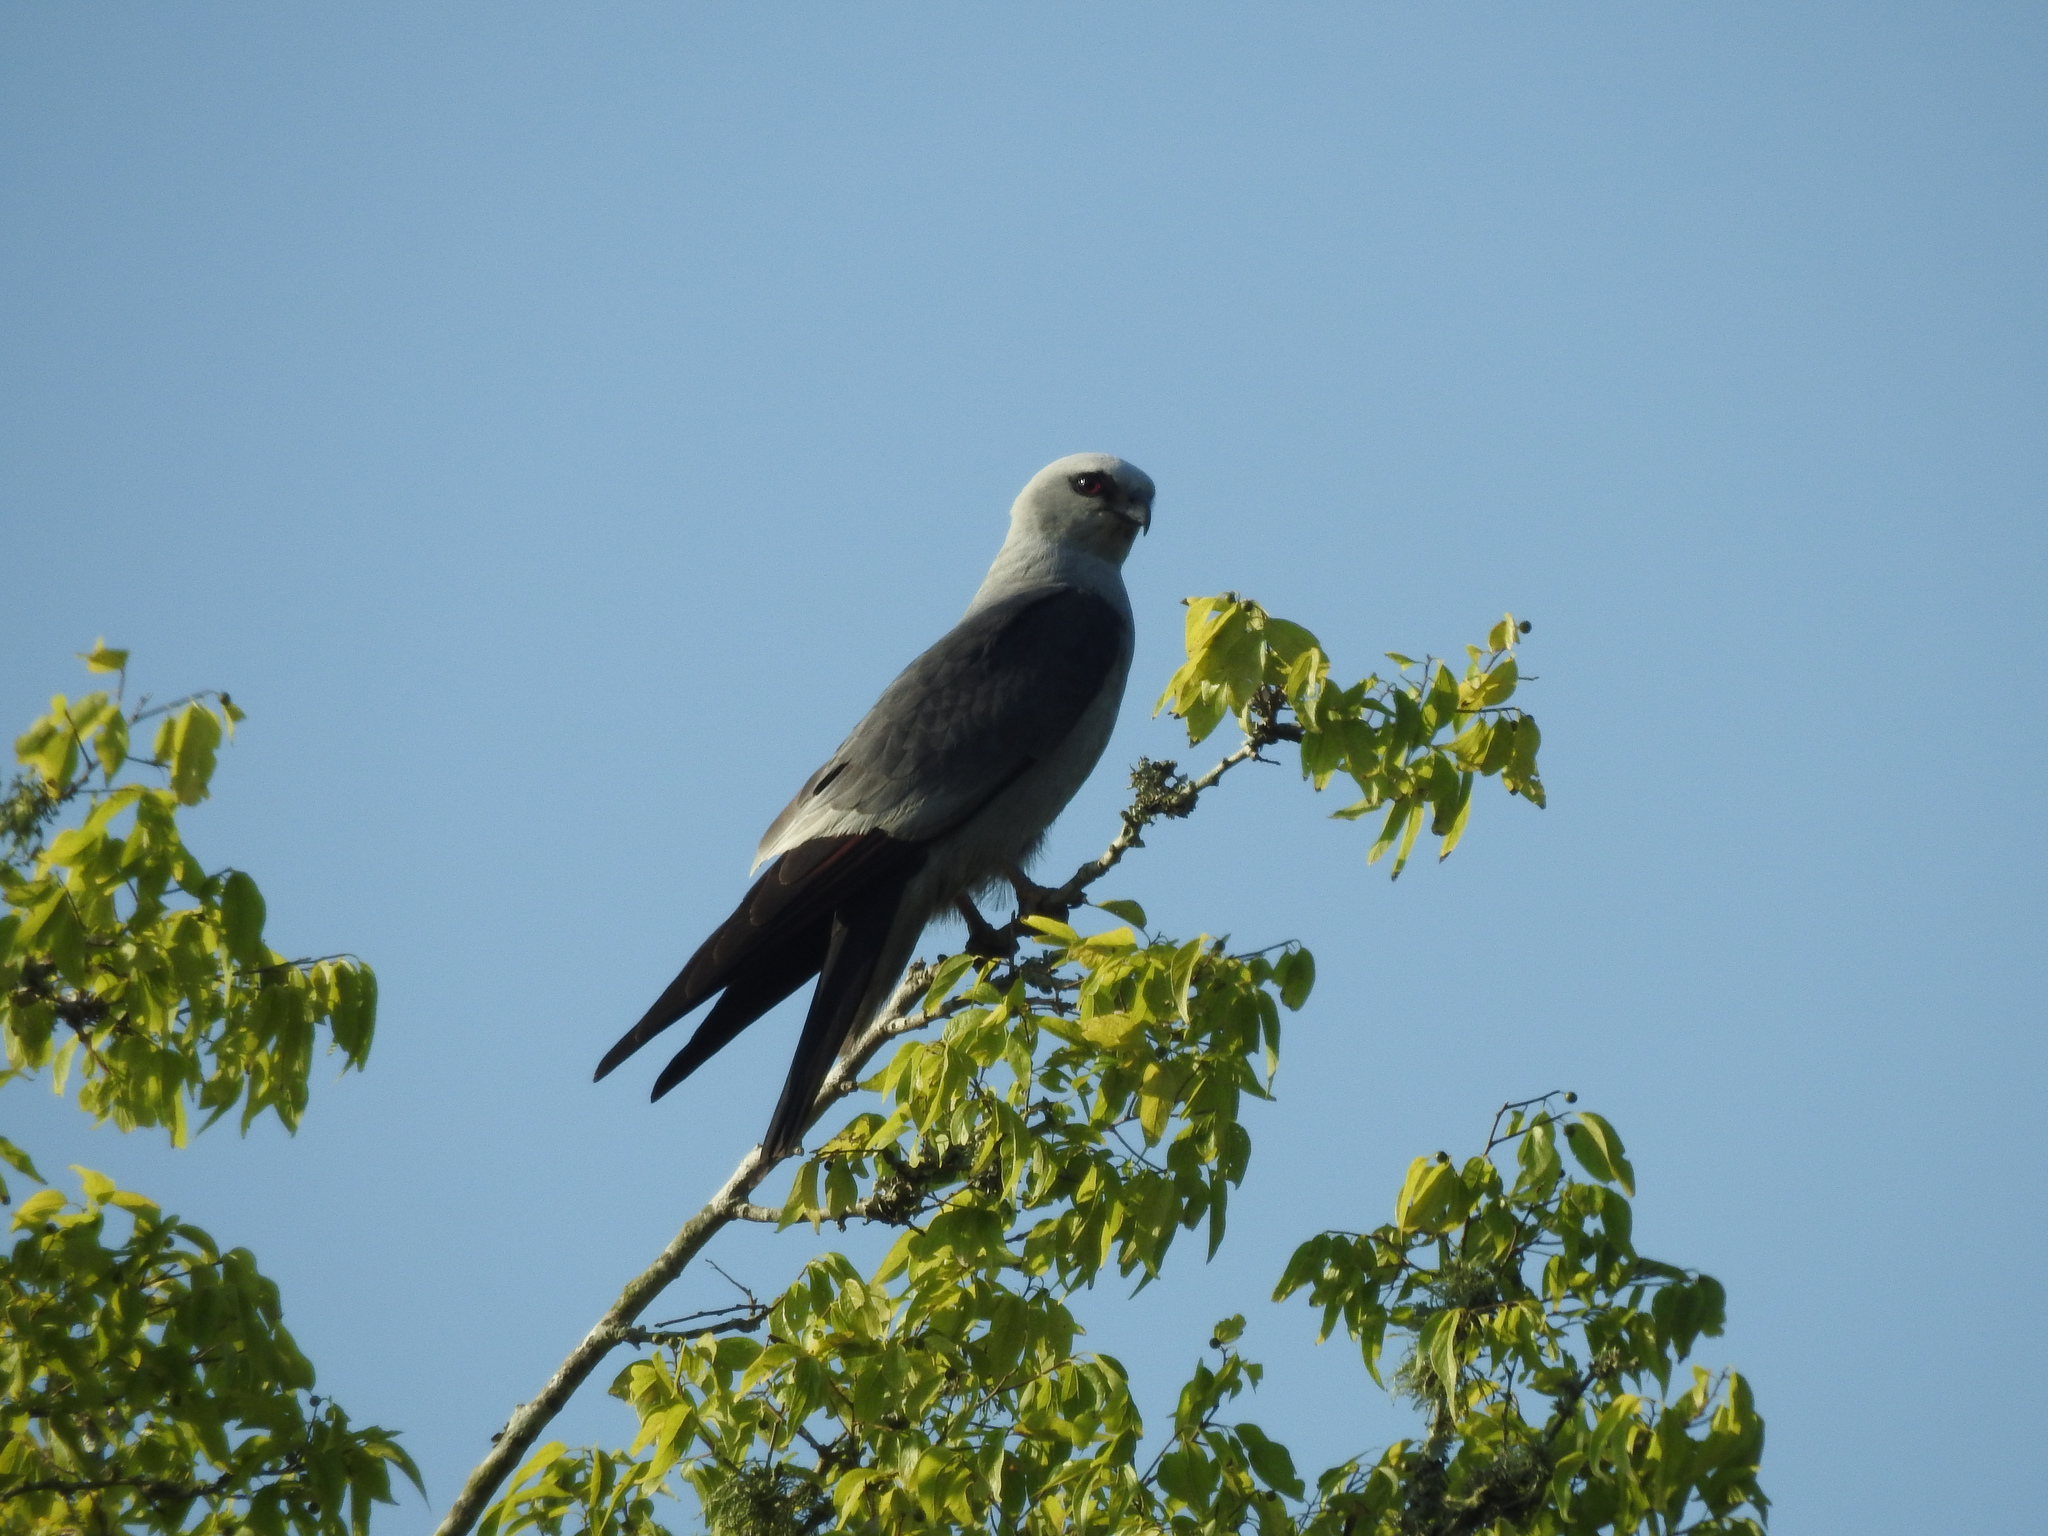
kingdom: Animalia
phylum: Chordata
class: Aves
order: Accipitriformes
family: Accipitridae
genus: Ictinia
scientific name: Ictinia mississippiensis
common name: Mississippi kite
